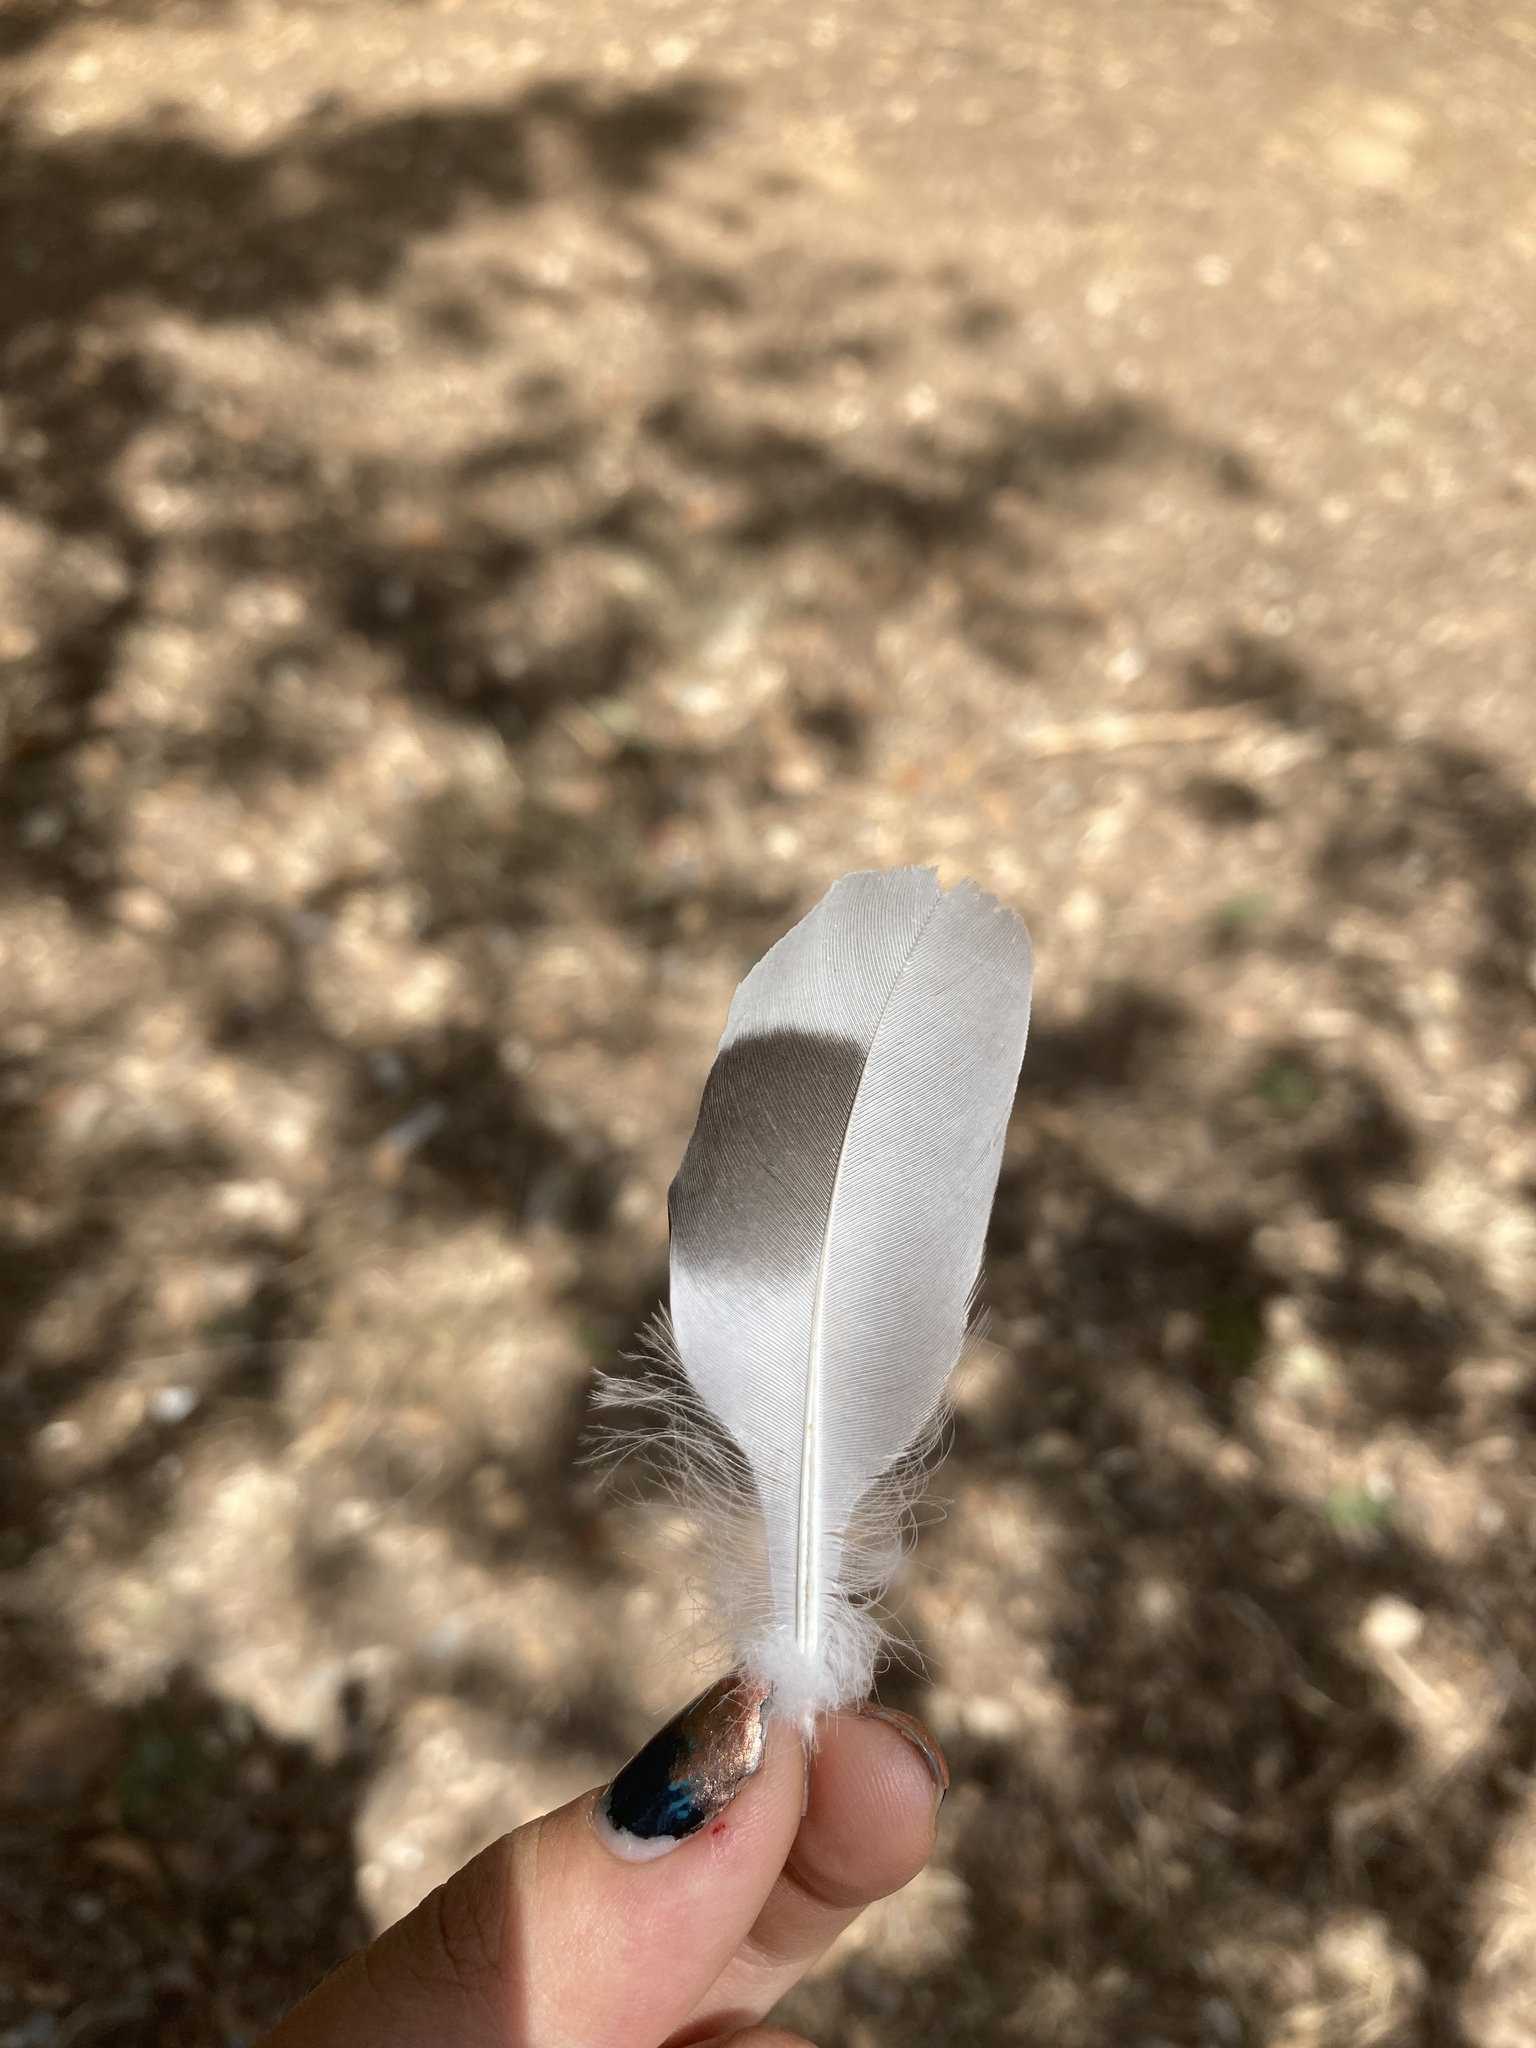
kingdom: Animalia
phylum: Chordata
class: Aves
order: Columbiformes
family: Columbidae
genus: Columba
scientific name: Columba livia
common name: Rock pigeon
